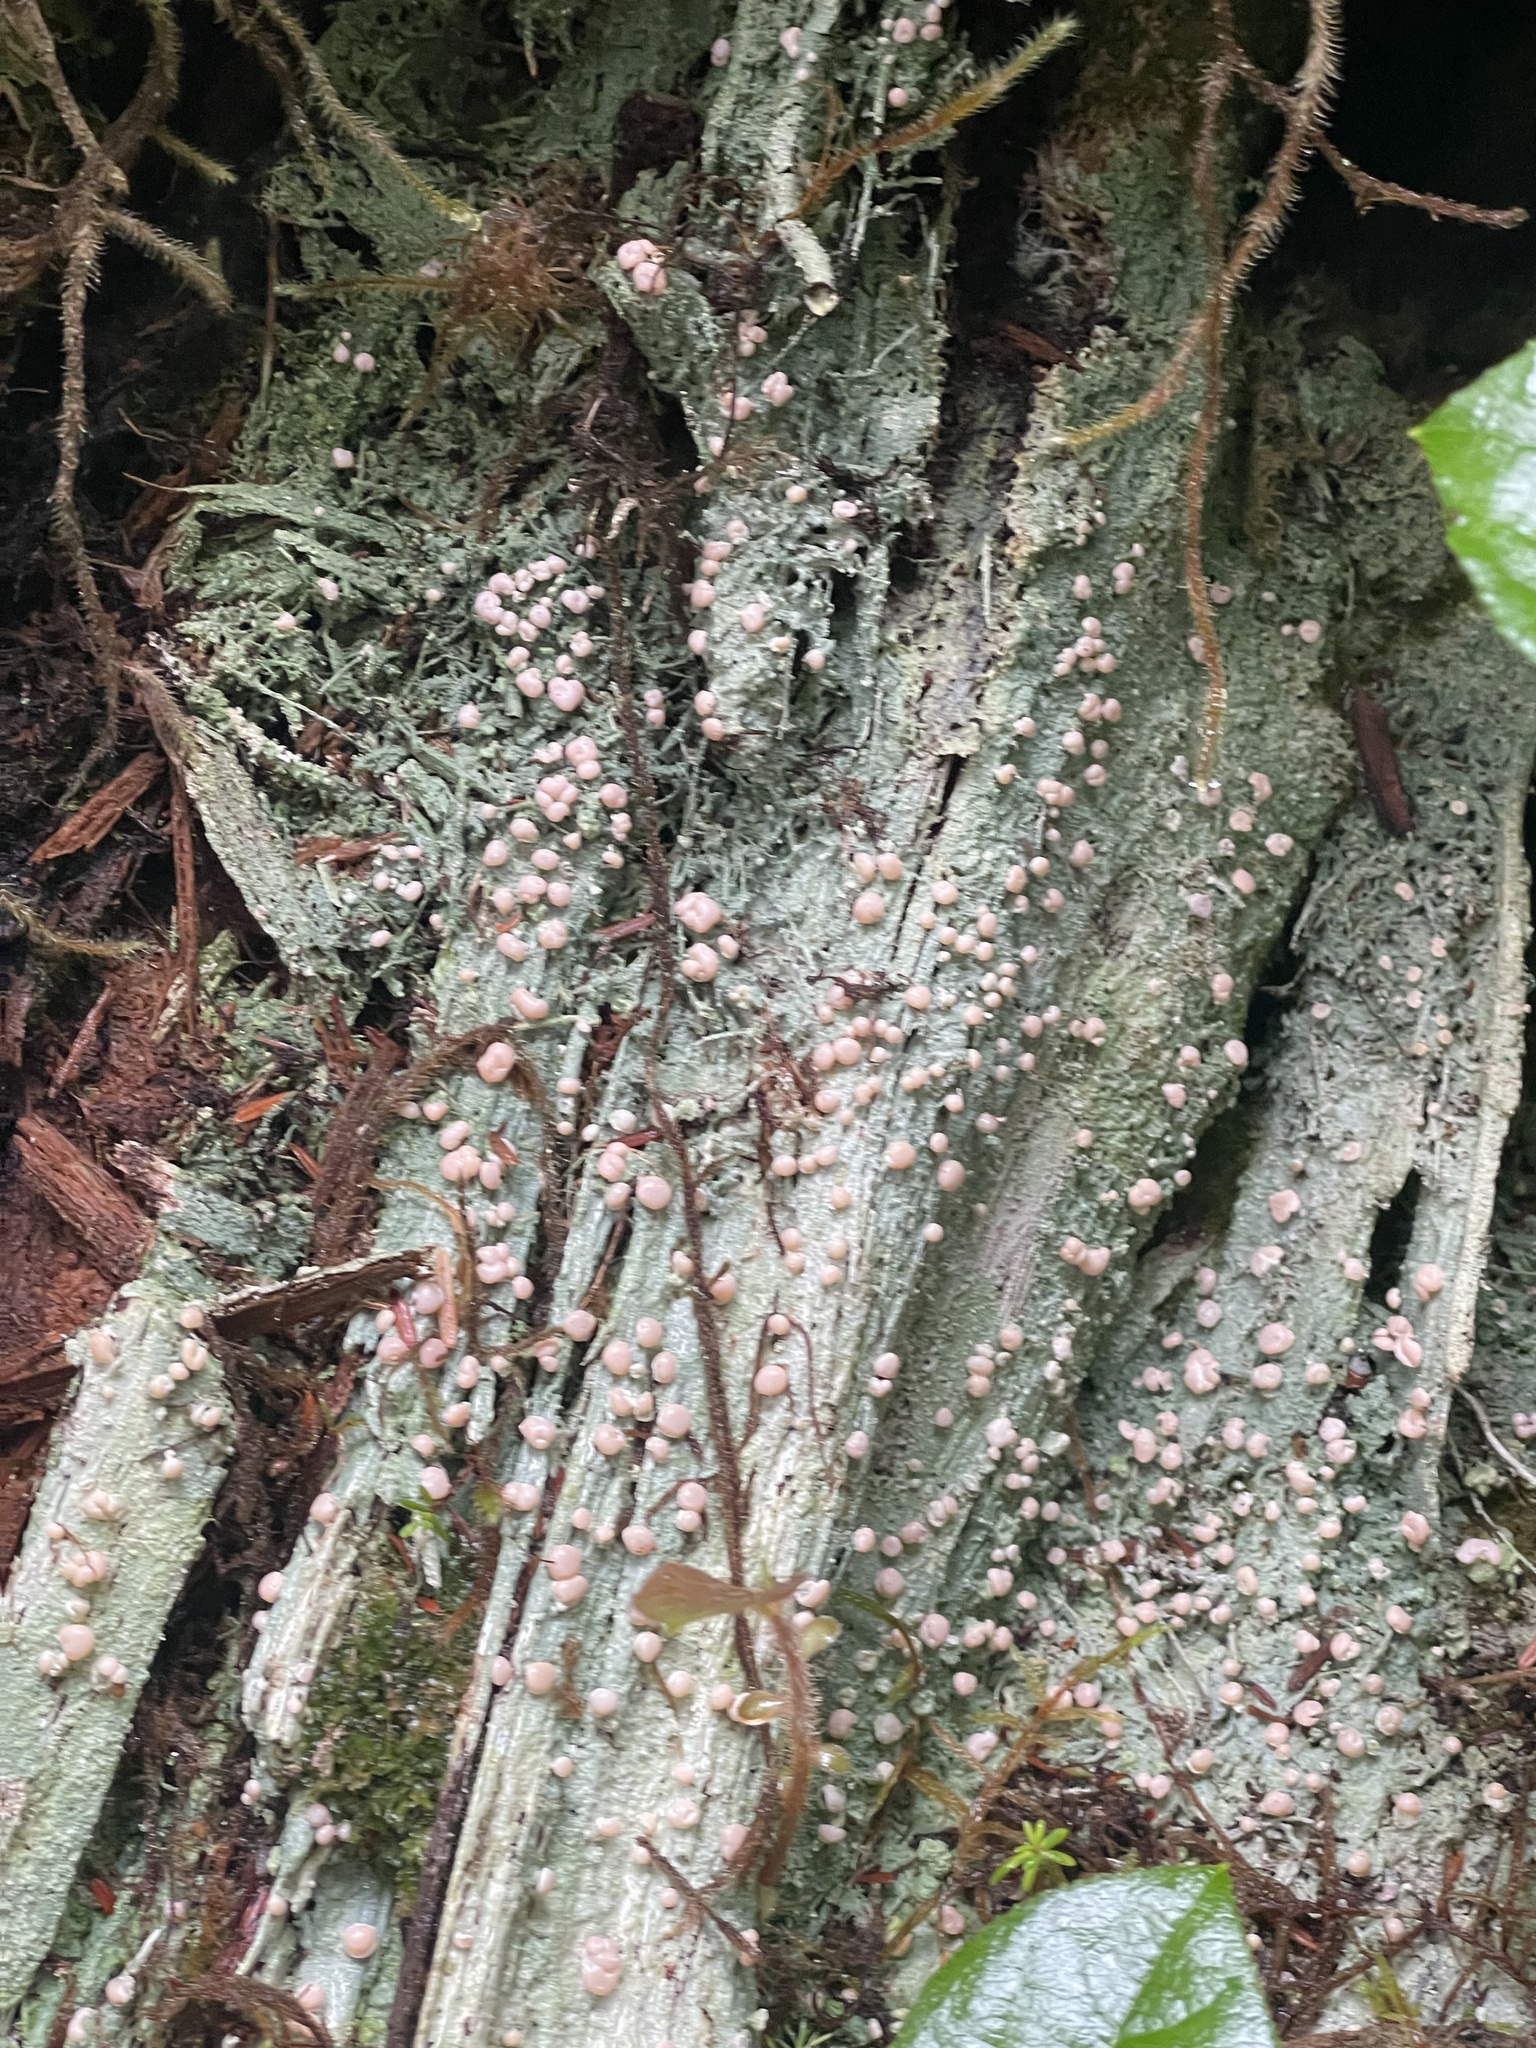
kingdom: Fungi
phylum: Ascomycota
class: Lecanoromycetes
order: Pertusariales
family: Icmadophilaceae
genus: Icmadophila
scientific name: Icmadophila ericetorum
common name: Candy lichen
